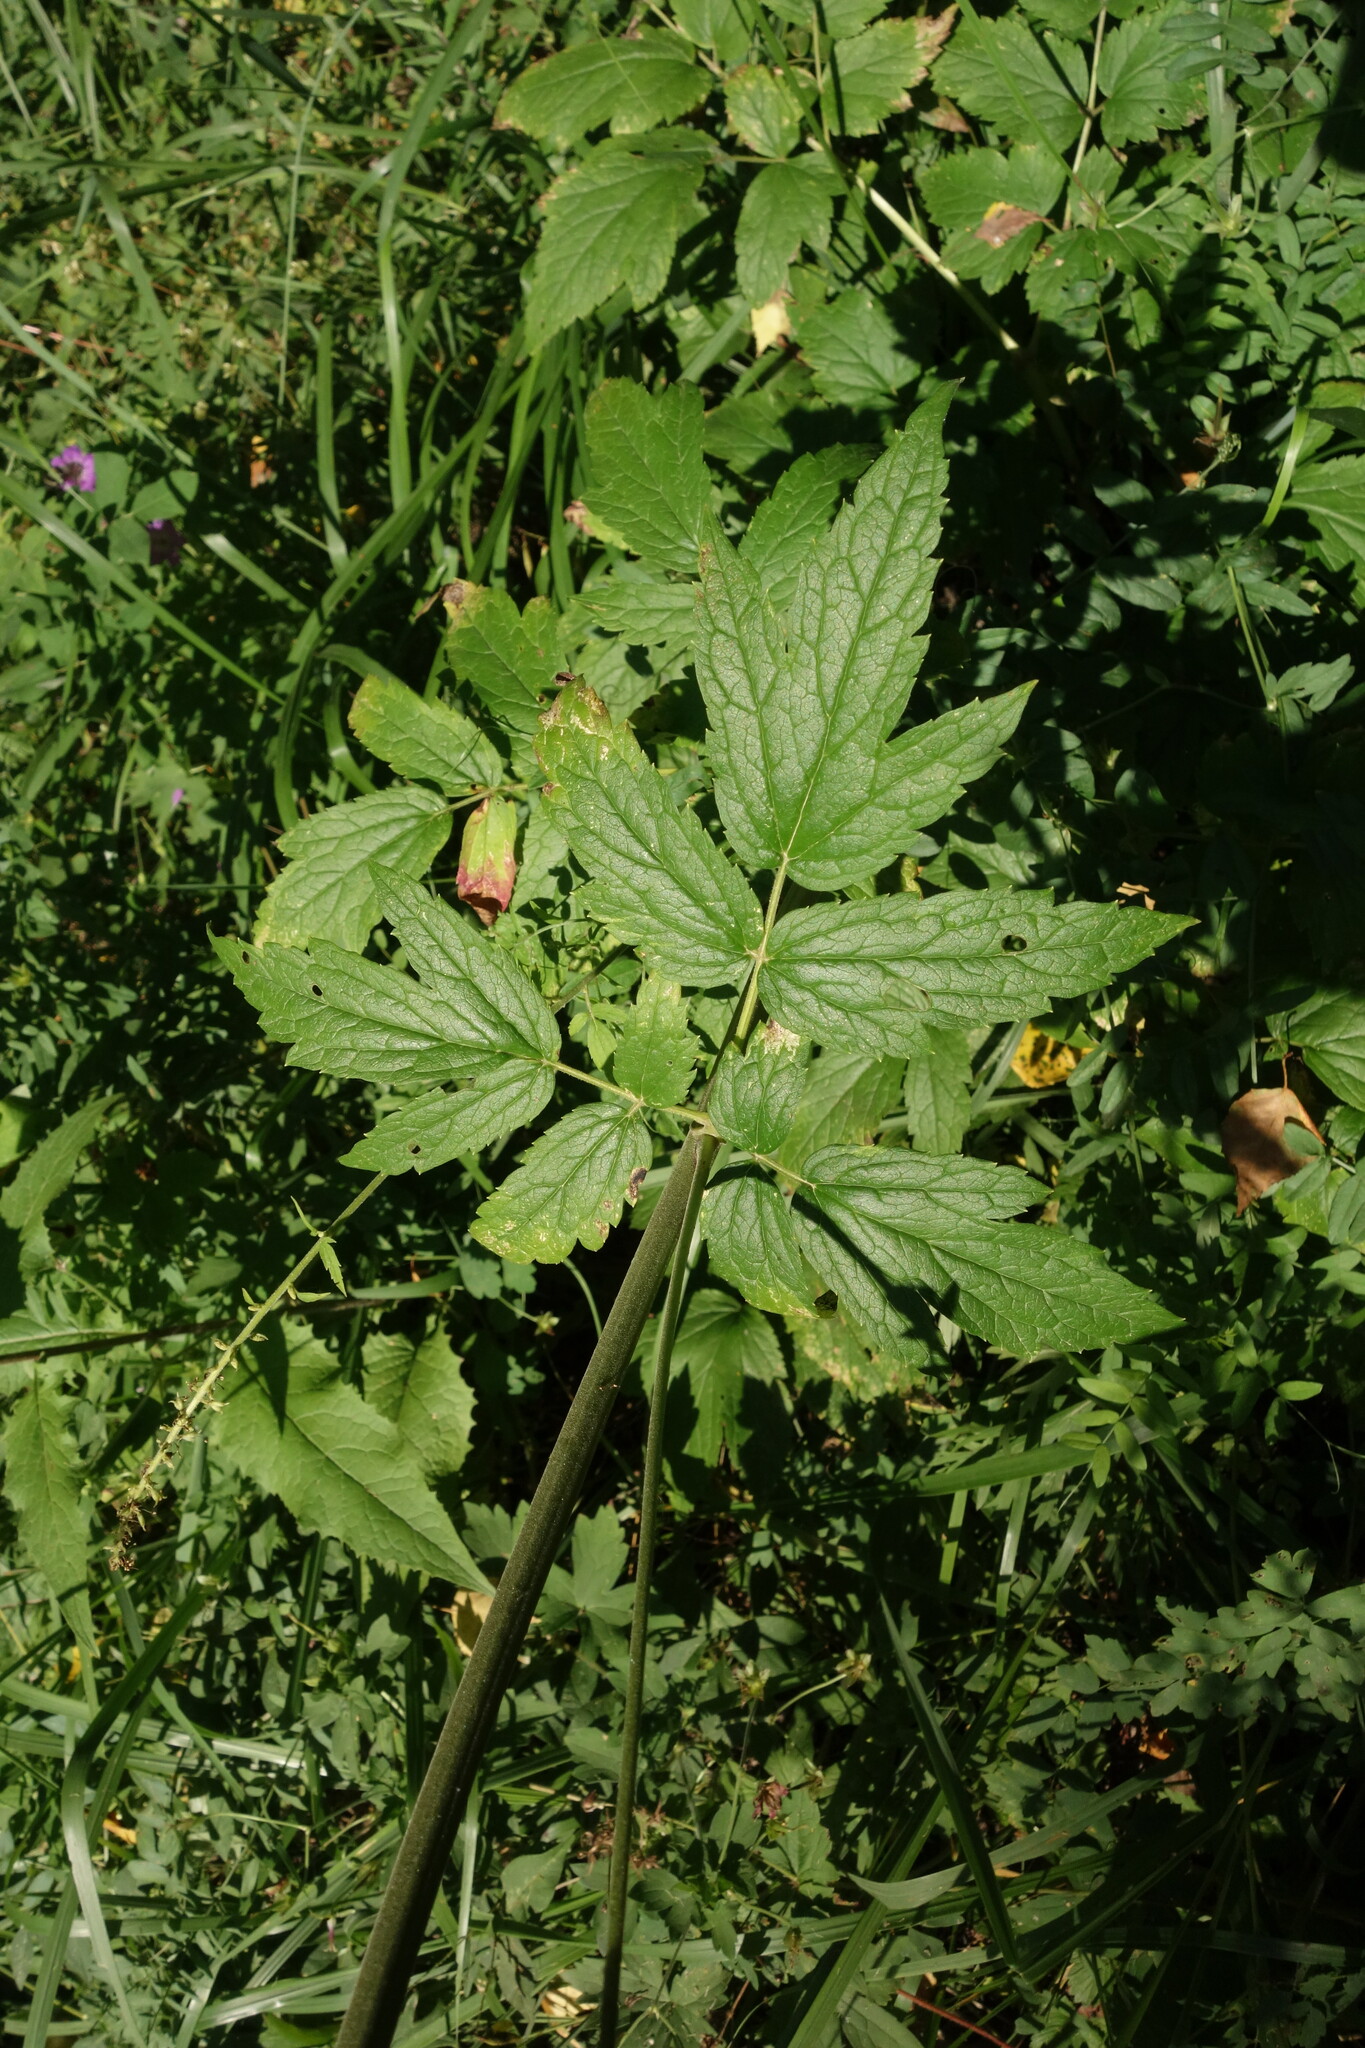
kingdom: Plantae
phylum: Tracheophyta
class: Magnoliopsida
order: Ranunculales
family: Ranunculaceae
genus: Actaea
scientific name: Actaea cimicifuga
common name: Chinese cimicifuga
